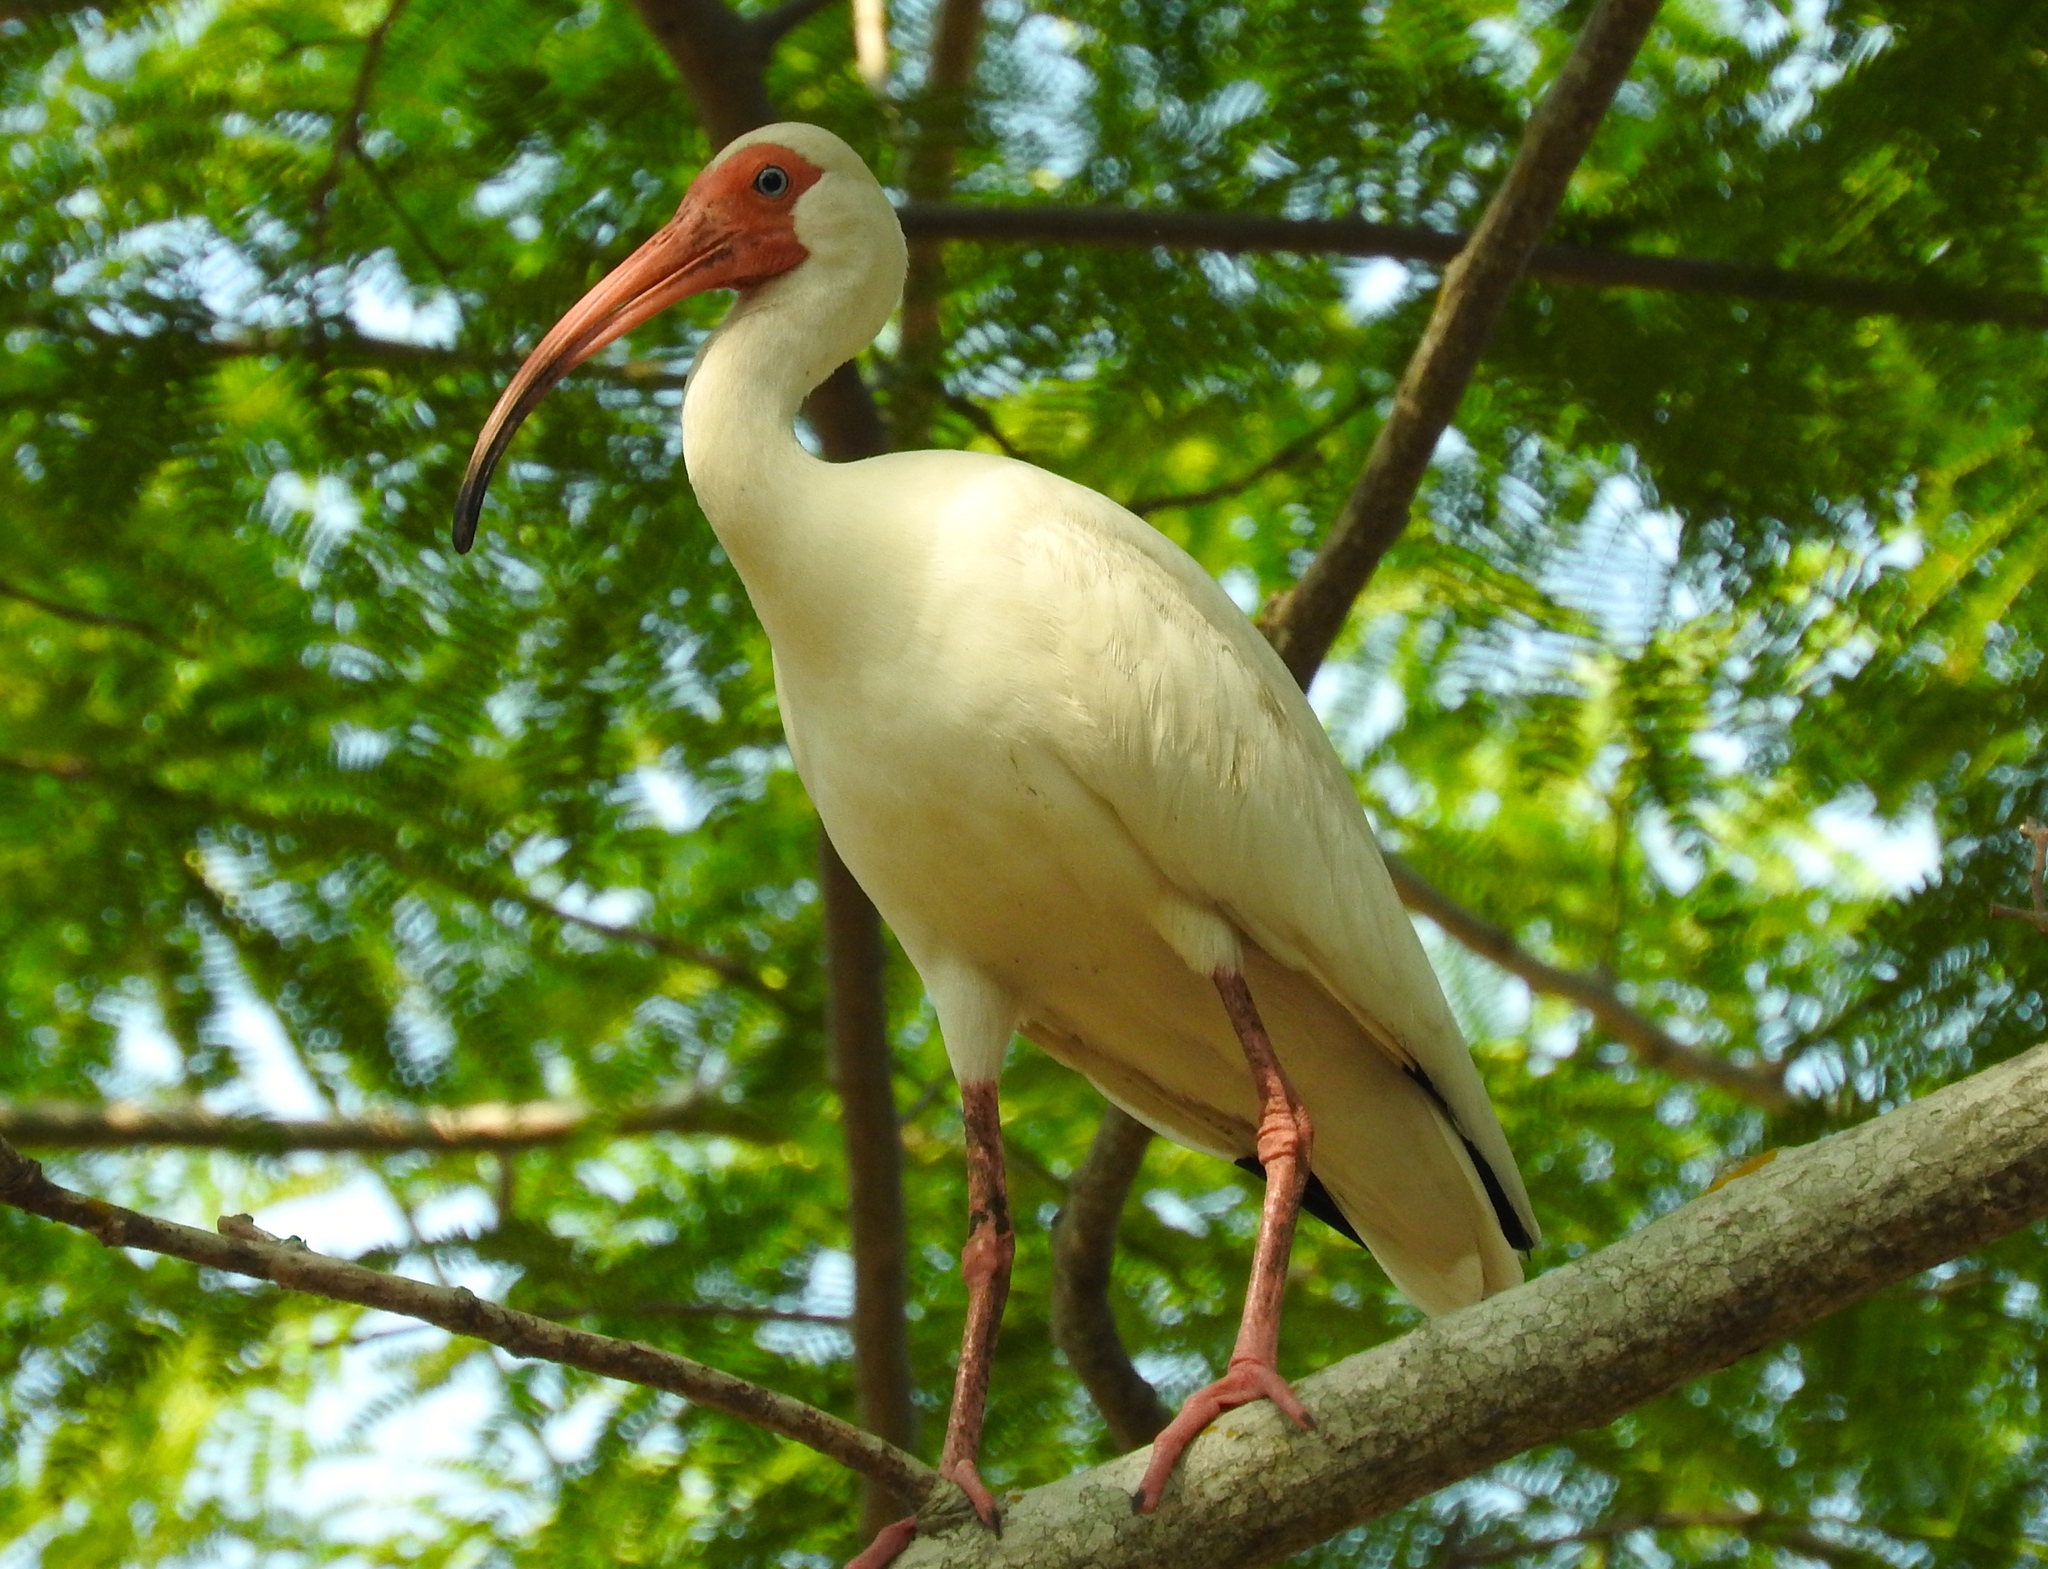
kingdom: Animalia
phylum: Chordata
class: Aves
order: Pelecaniformes
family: Threskiornithidae
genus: Eudocimus
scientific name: Eudocimus albus
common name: White ibis
